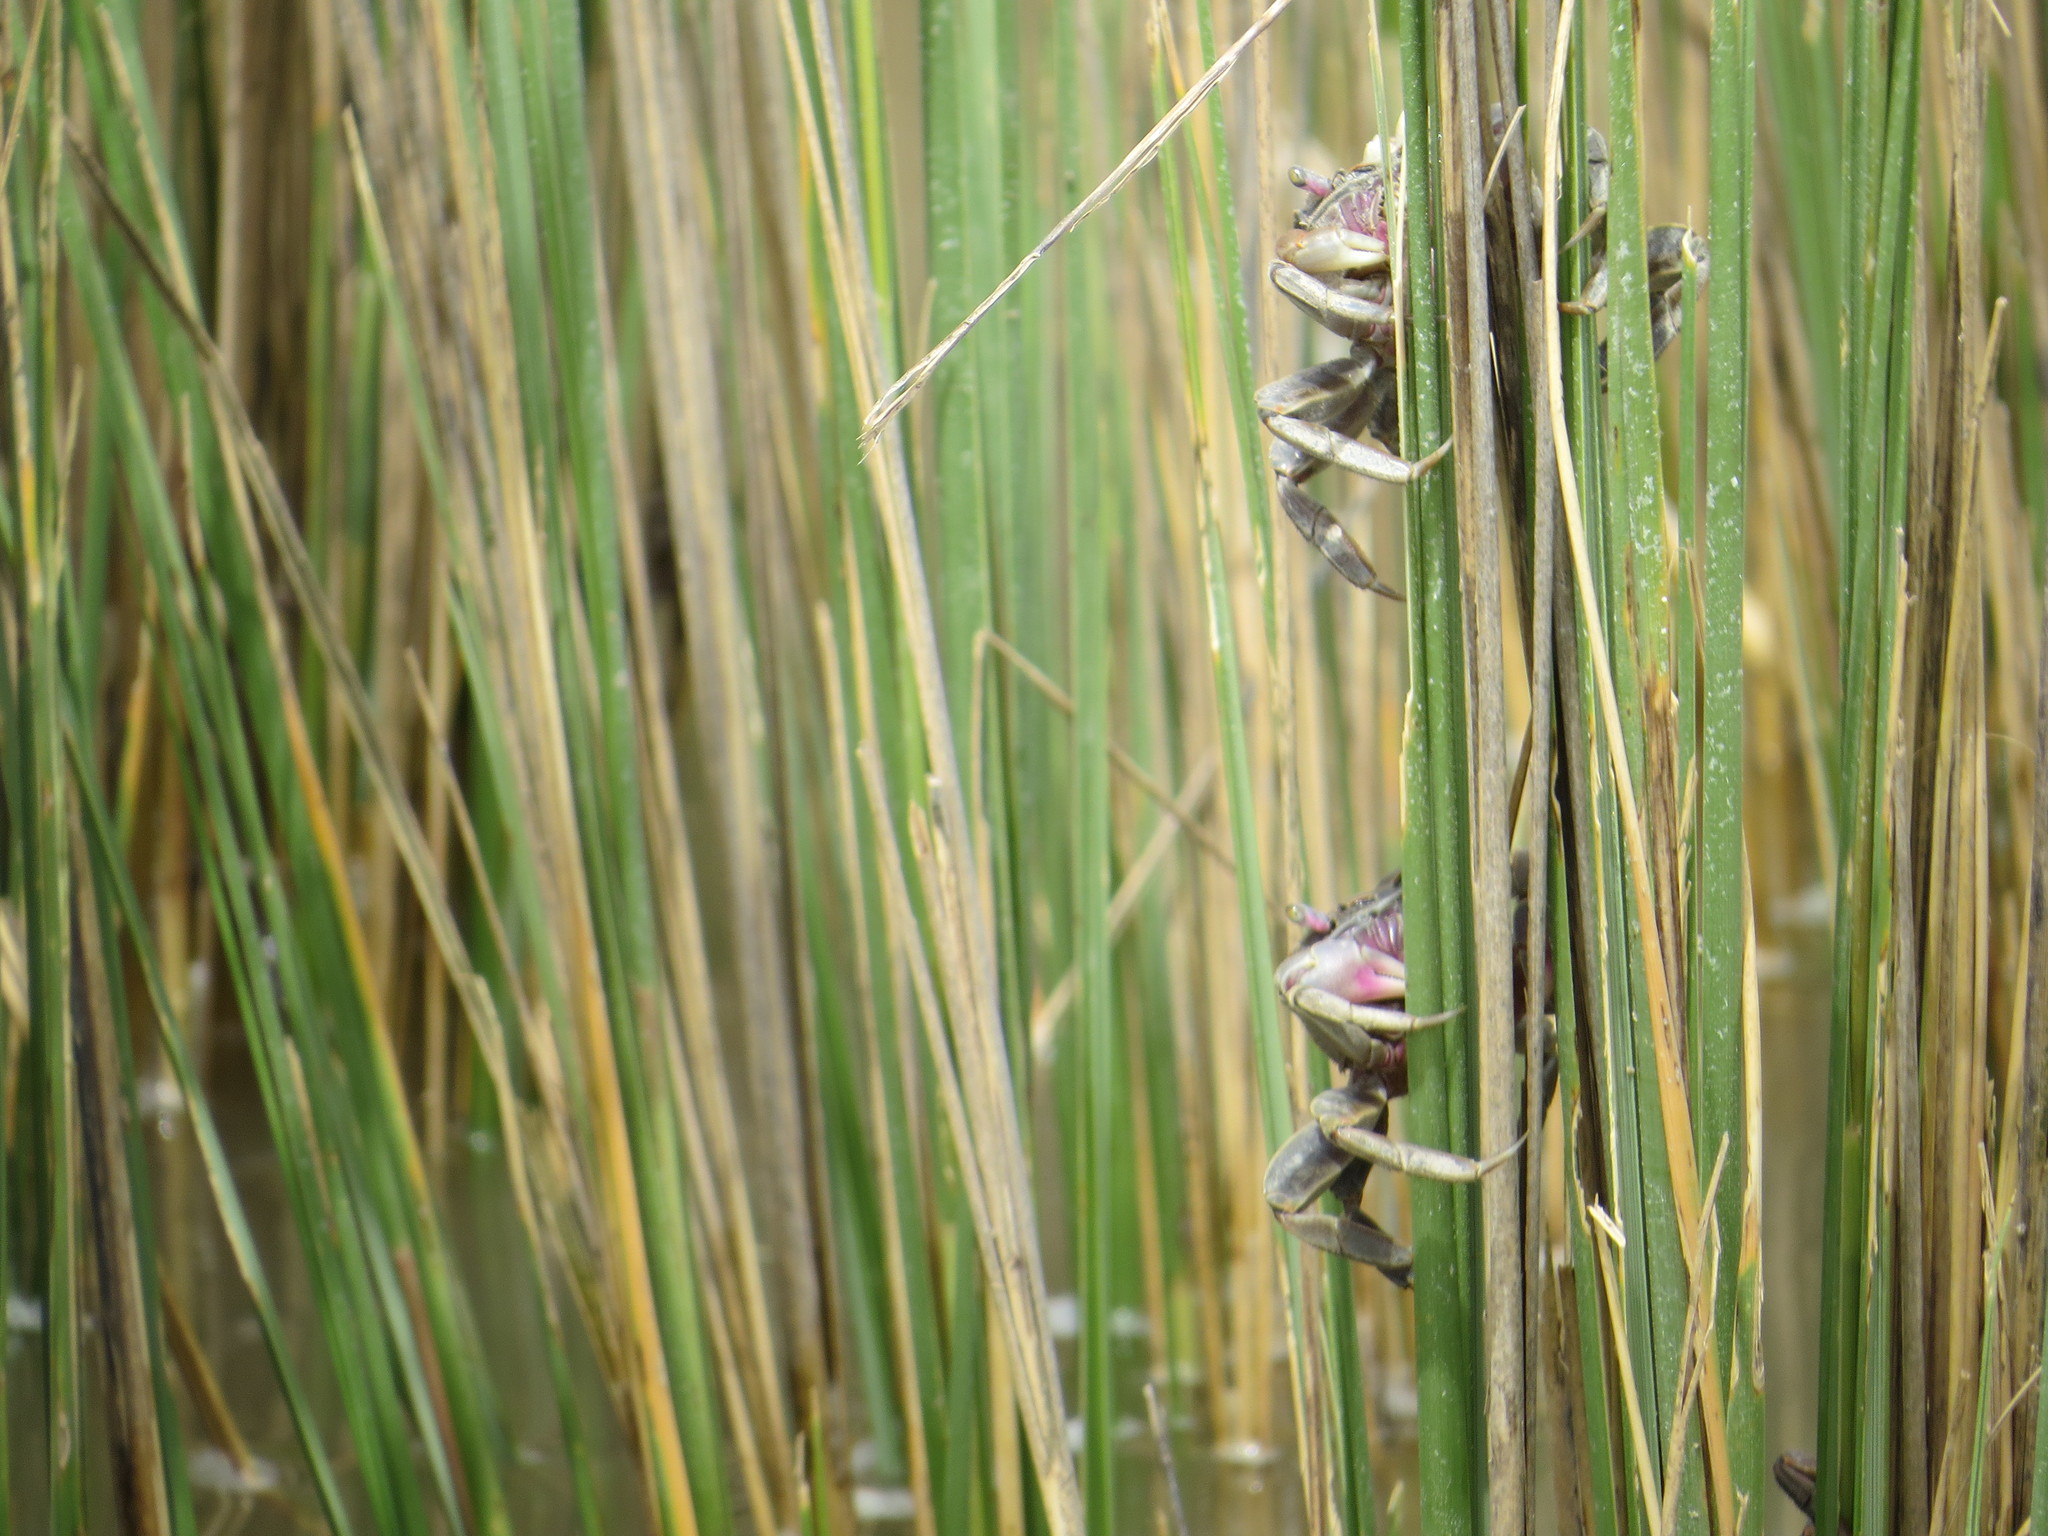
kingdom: Animalia
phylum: Arthropoda
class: Malacostraca
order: Decapoda
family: Varunidae
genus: Neohelice
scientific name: Neohelice granulata
